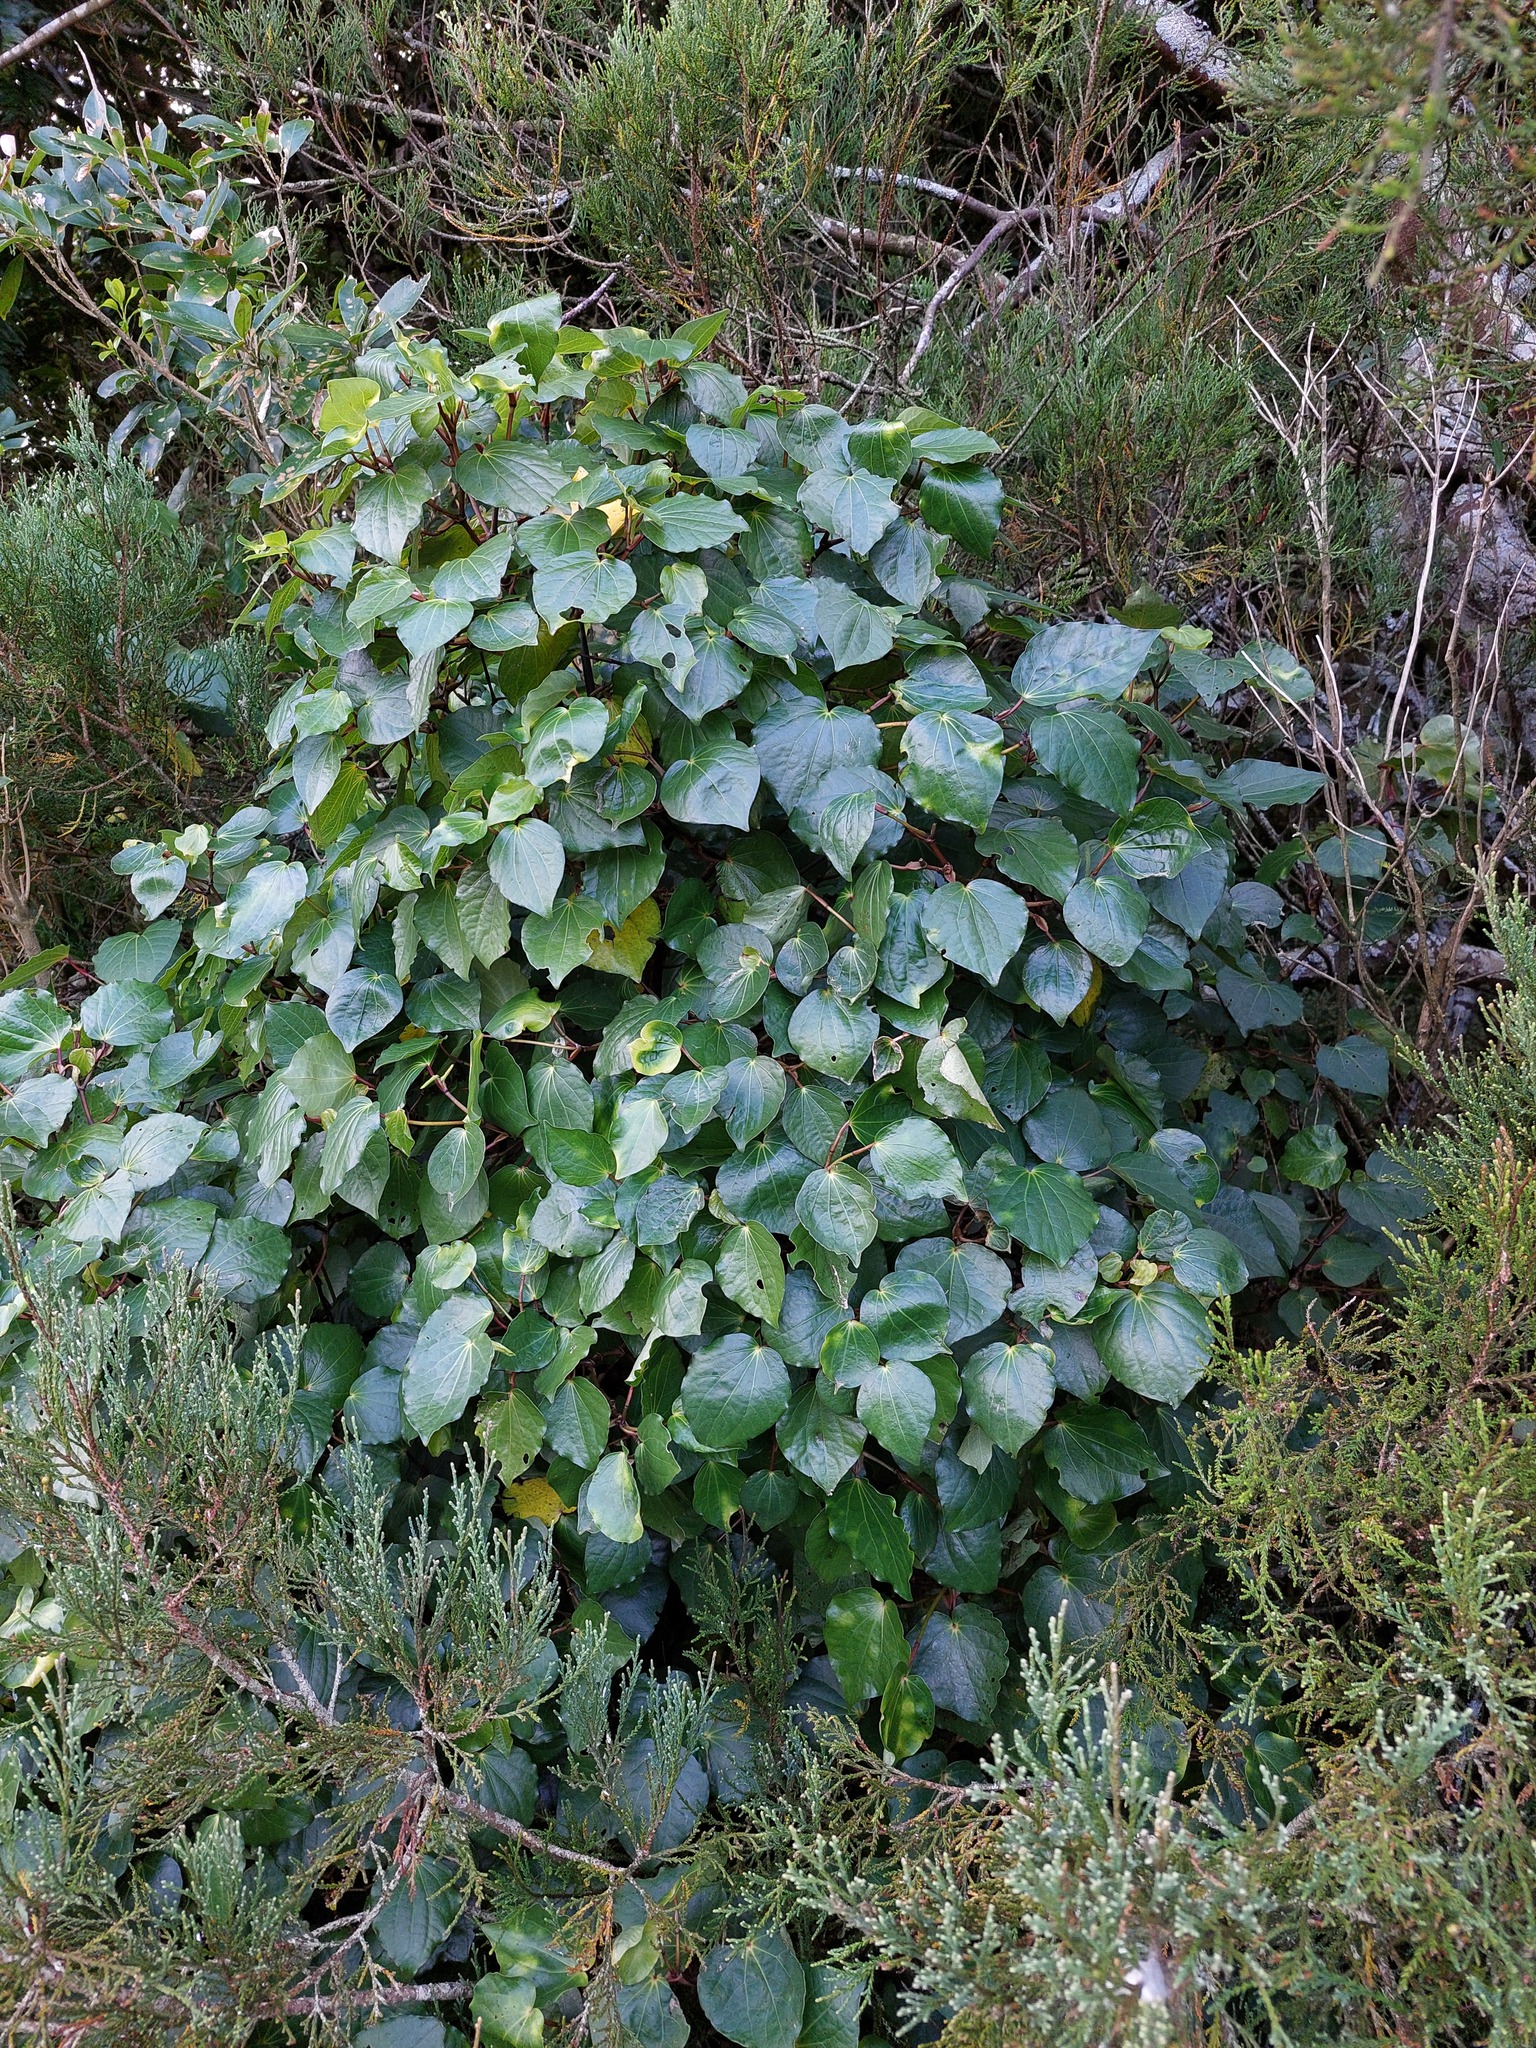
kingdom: Plantae
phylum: Tracheophyta
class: Magnoliopsida
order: Piperales
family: Piperaceae
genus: Macropiper
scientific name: Macropiper excelsum
